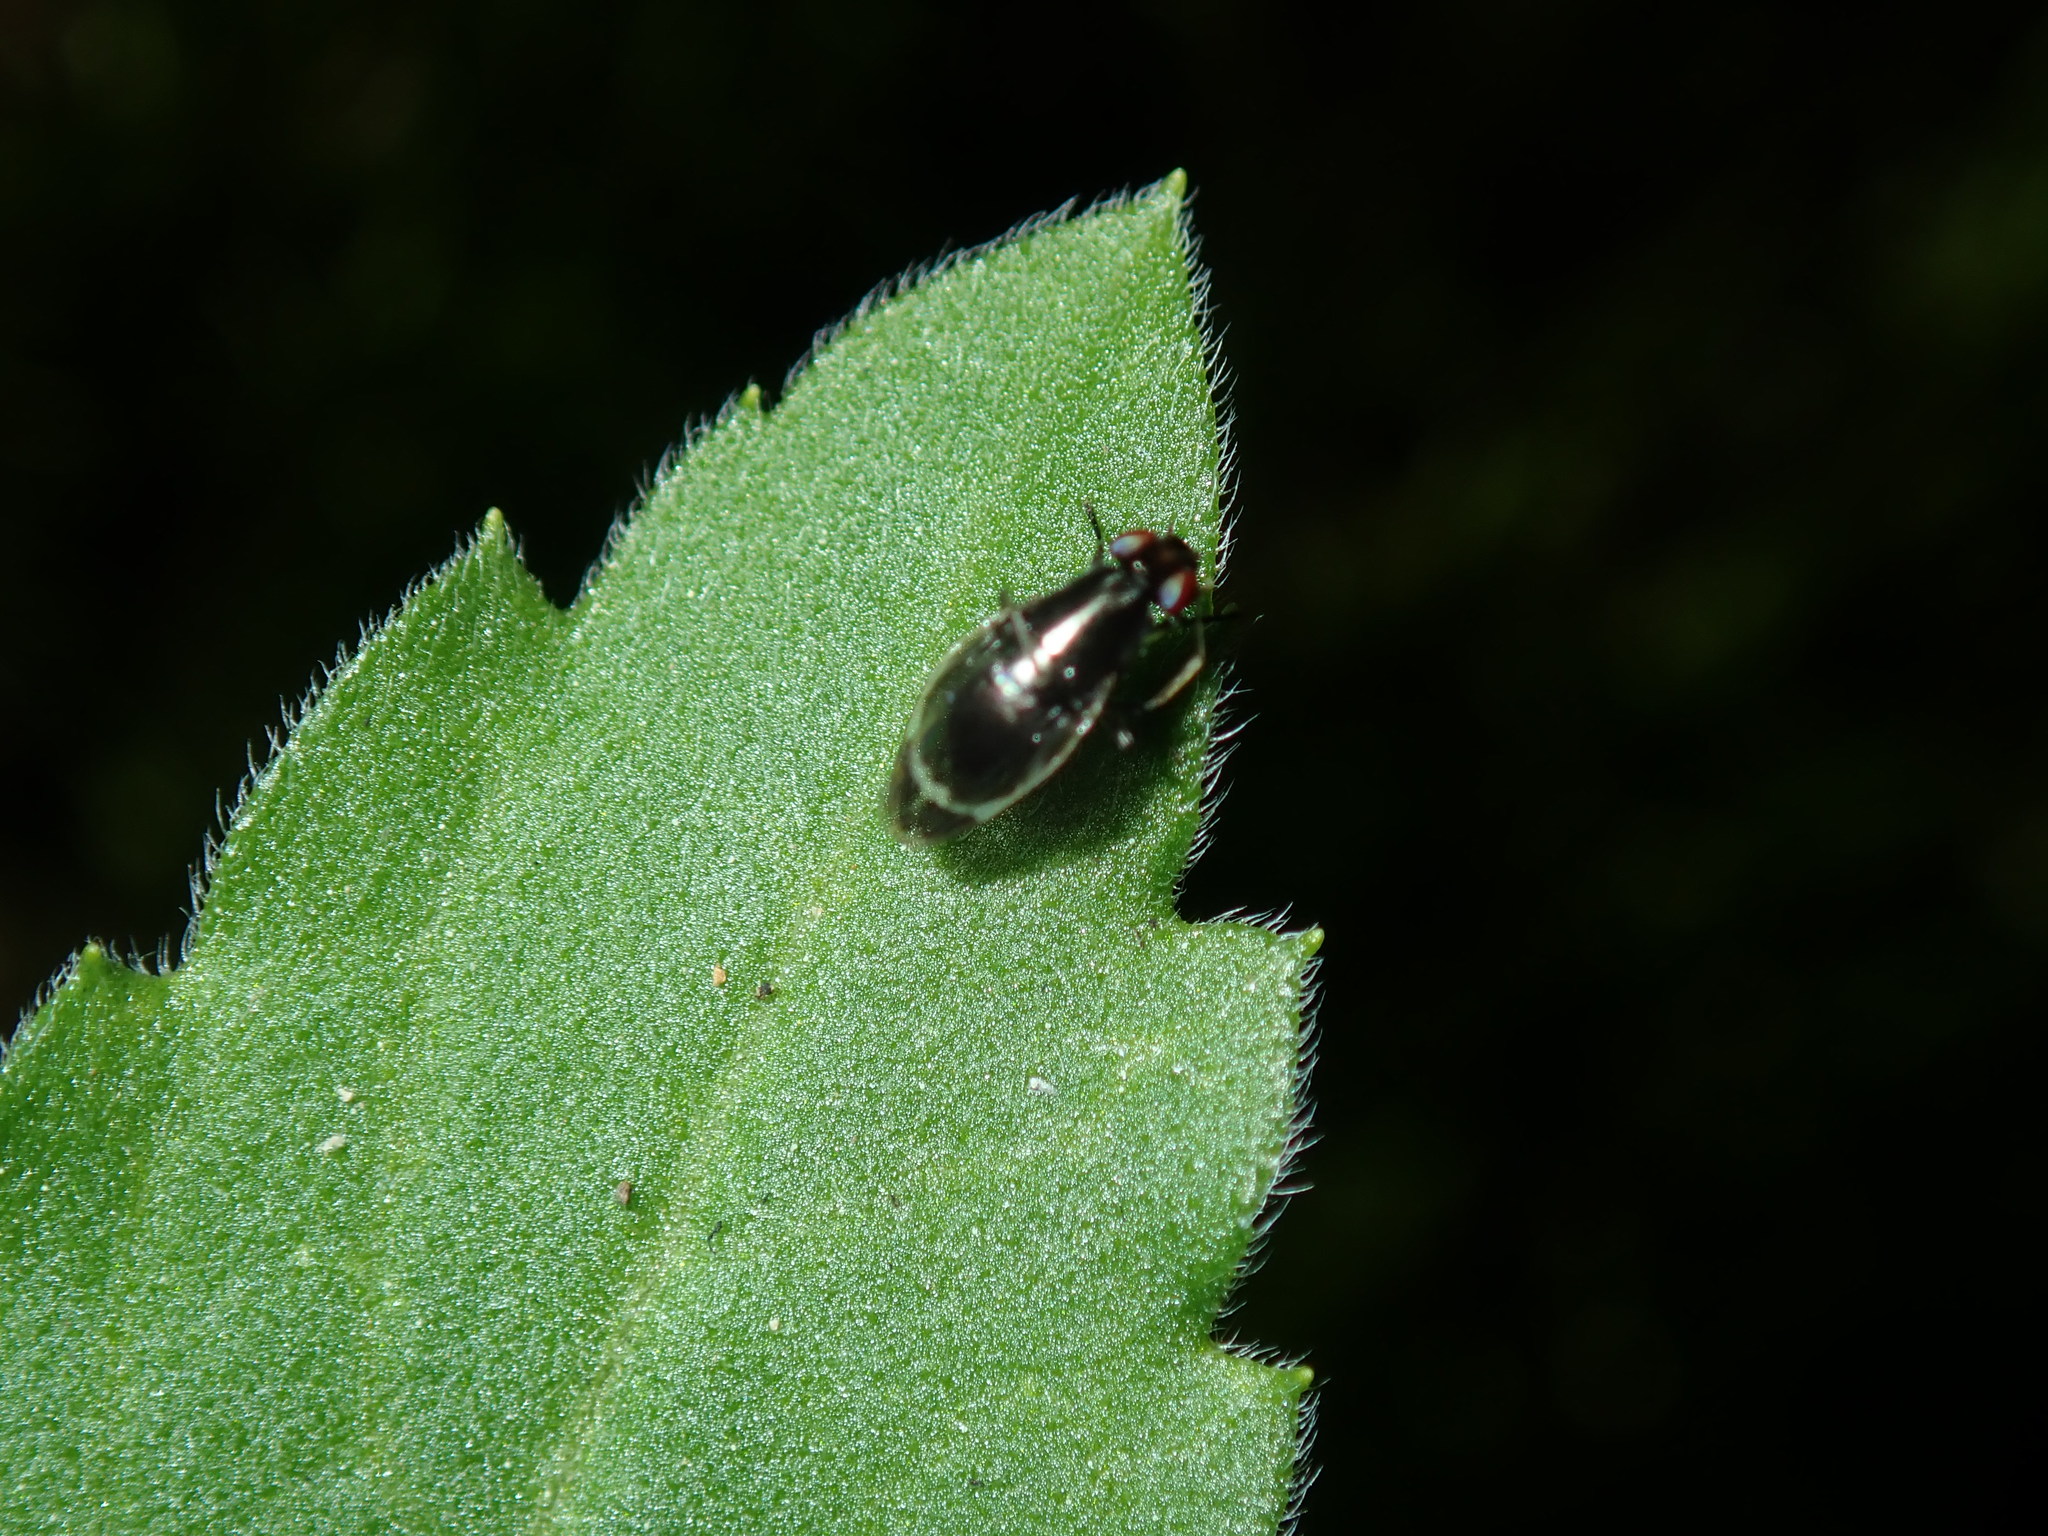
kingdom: Animalia
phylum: Arthropoda
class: Insecta
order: Diptera
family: Lauxaniidae
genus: Depressa
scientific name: Depressa albicosta
